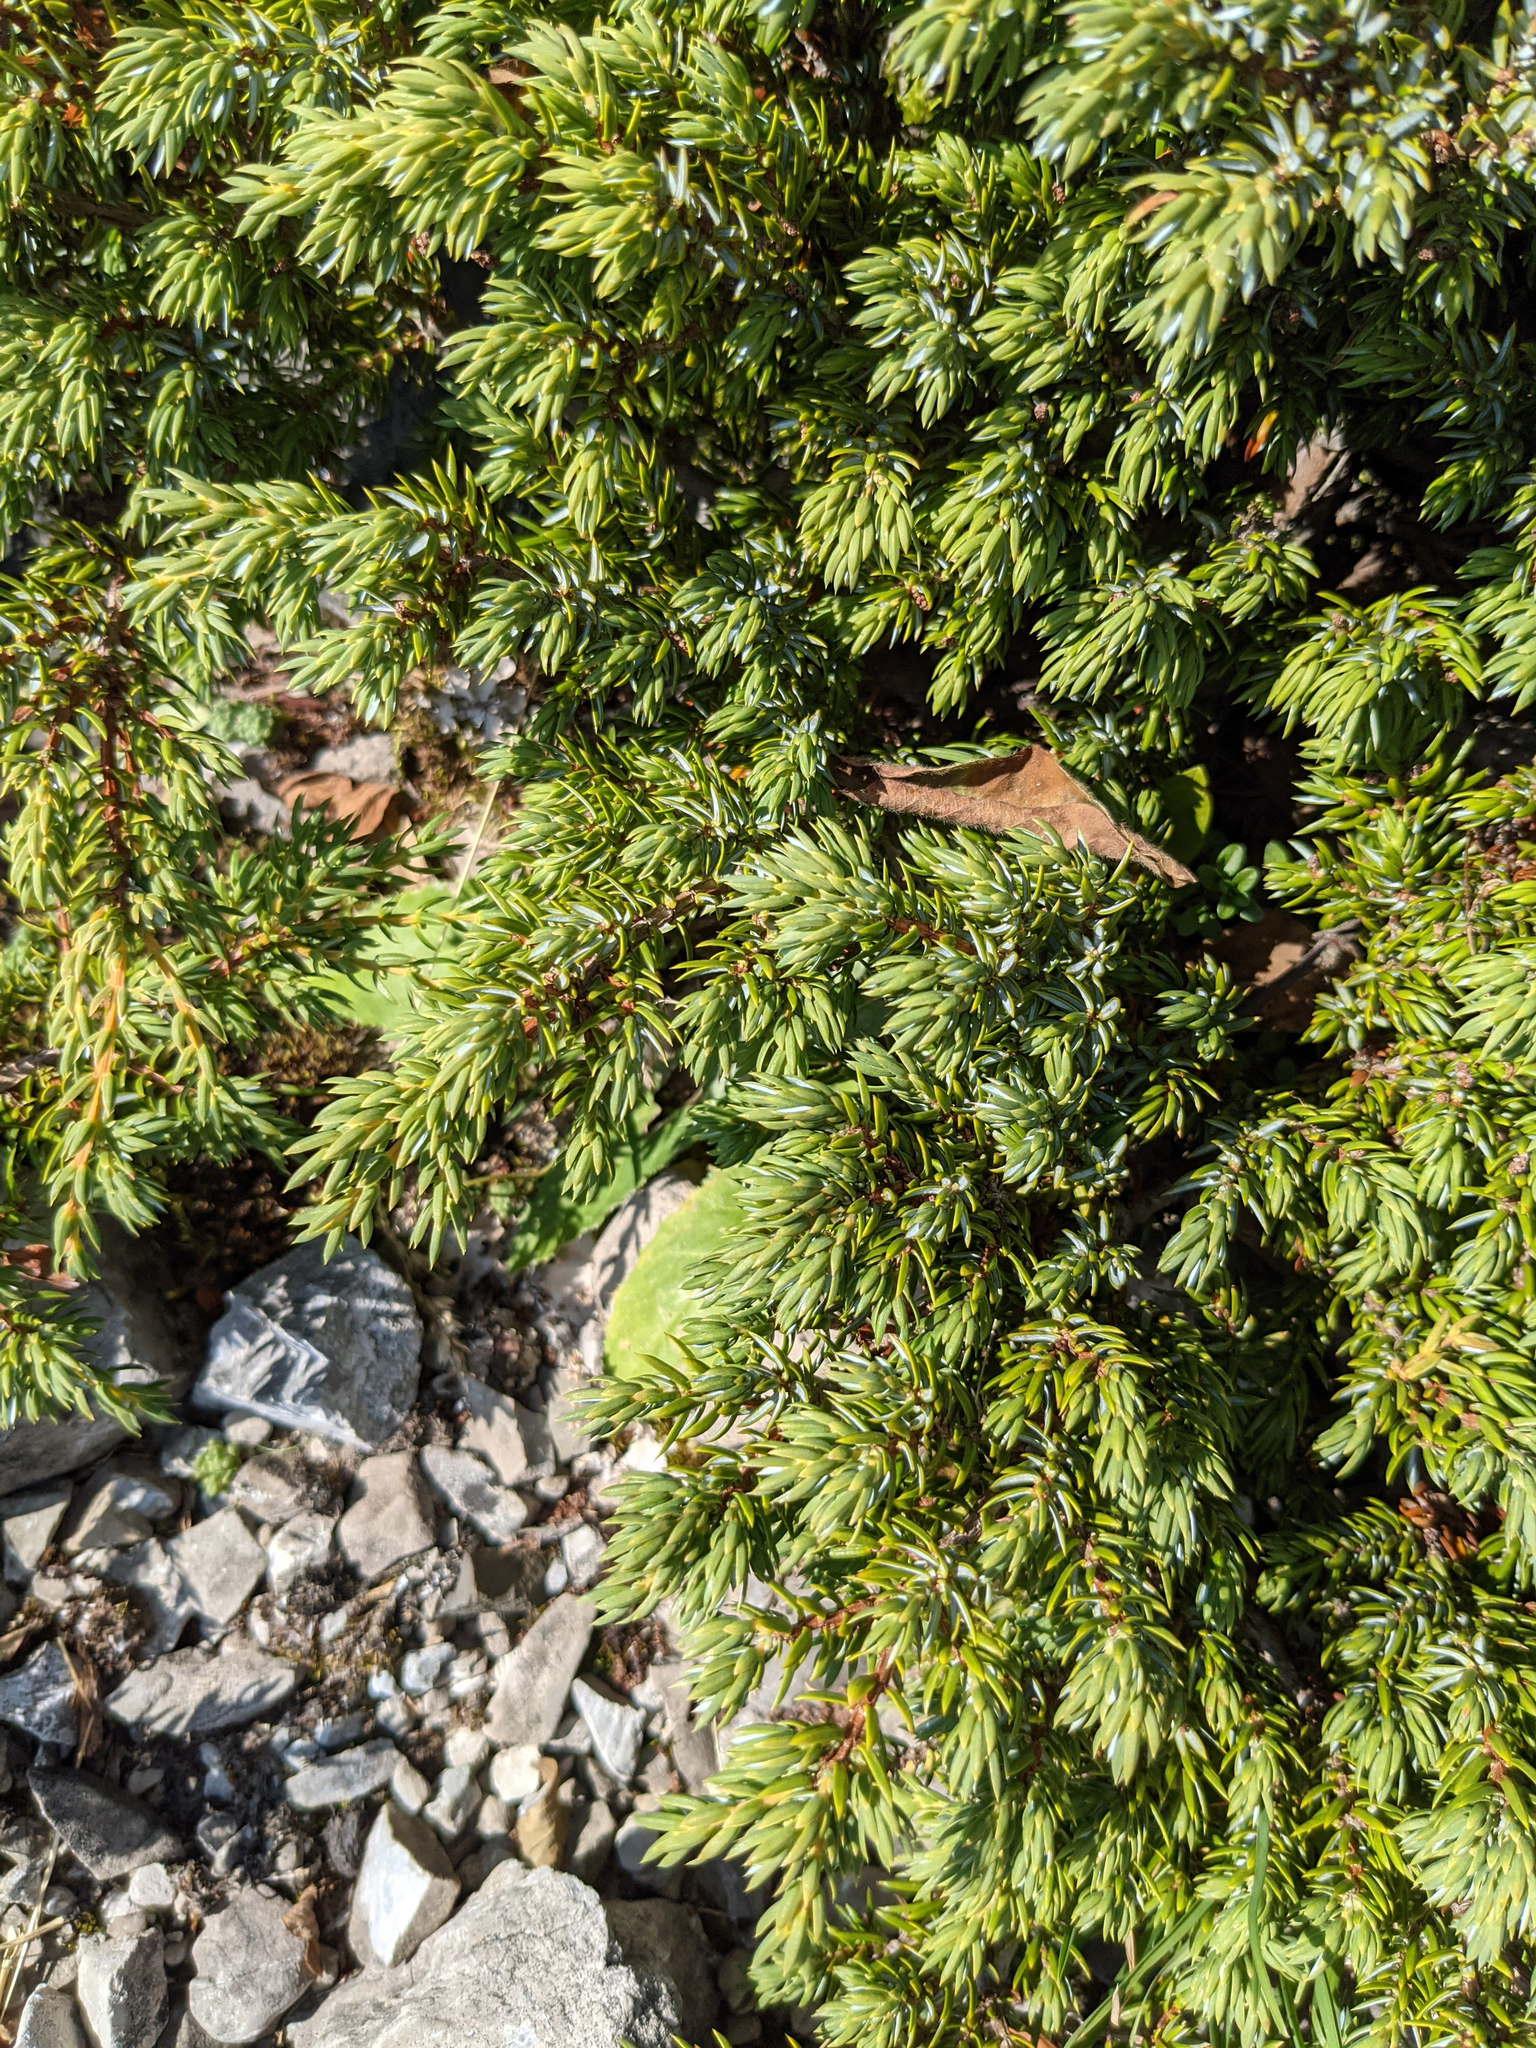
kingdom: Plantae
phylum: Tracheophyta
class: Pinopsida
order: Pinales
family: Cupressaceae
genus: Juniperus
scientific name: Juniperus communis
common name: Common juniper
